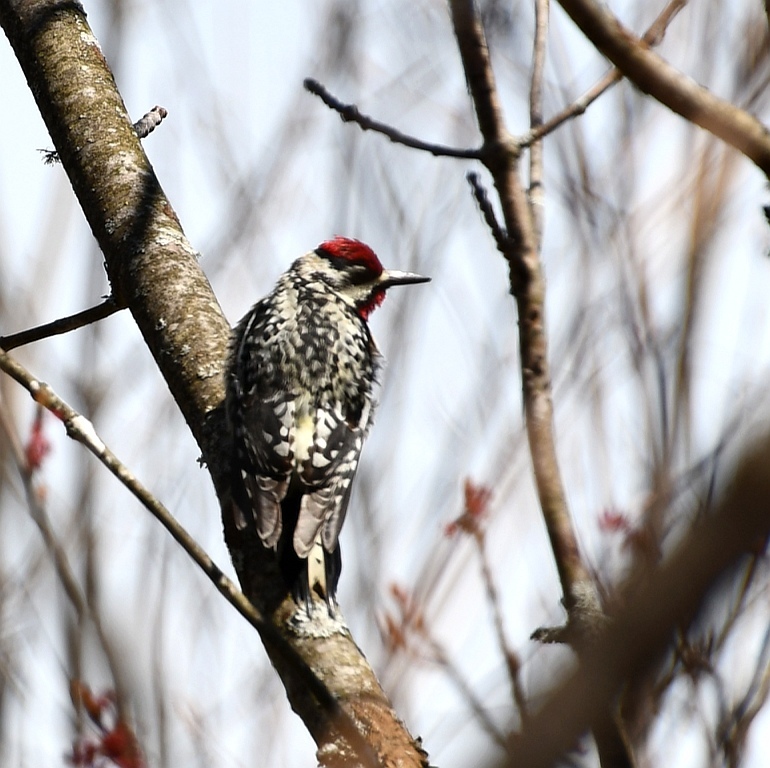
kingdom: Animalia
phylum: Chordata
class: Aves
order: Piciformes
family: Picidae
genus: Sphyrapicus
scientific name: Sphyrapicus varius
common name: Yellow-bellied sapsucker
